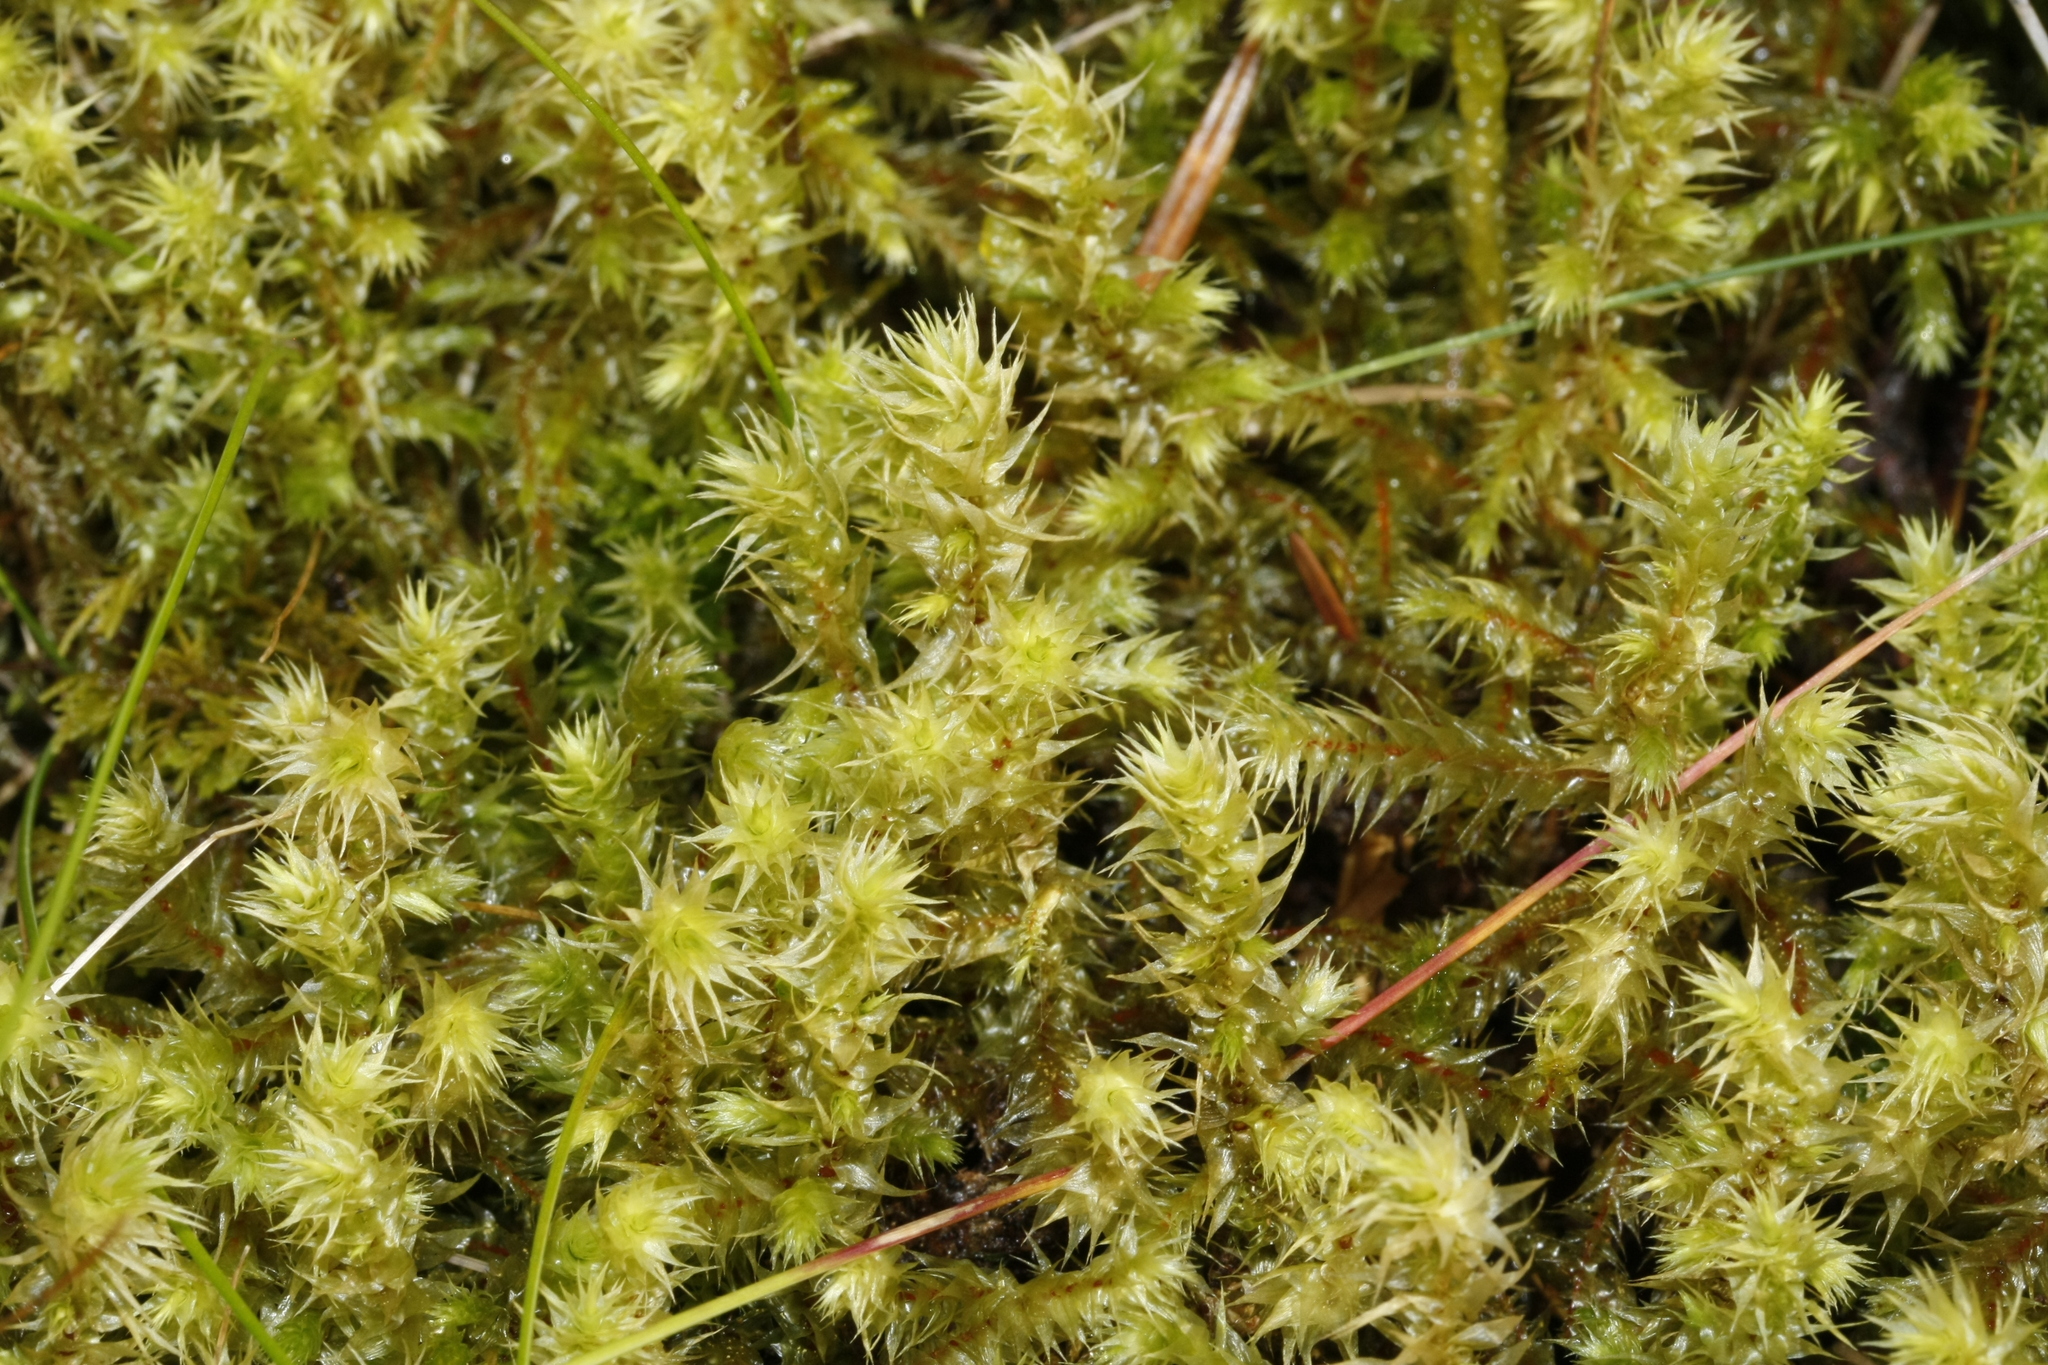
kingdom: Plantae
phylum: Bryophyta
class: Bryopsida
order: Hypnales
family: Hylocomiaceae
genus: Hylocomiadelphus
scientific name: Hylocomiadelphus triquetrus
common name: Rough goose neck moss
